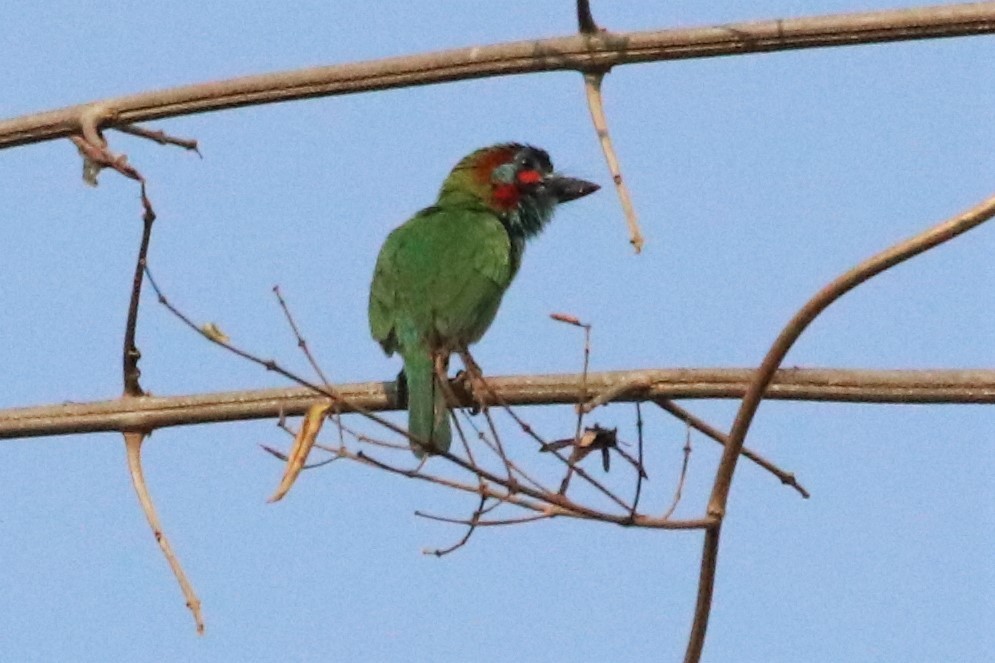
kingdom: Animalia
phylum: Chordata
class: Aves
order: Piciformes
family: Megalaimidae
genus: Psilopogon
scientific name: Psilopogon duvaucelii
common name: Blue-eared barbet
